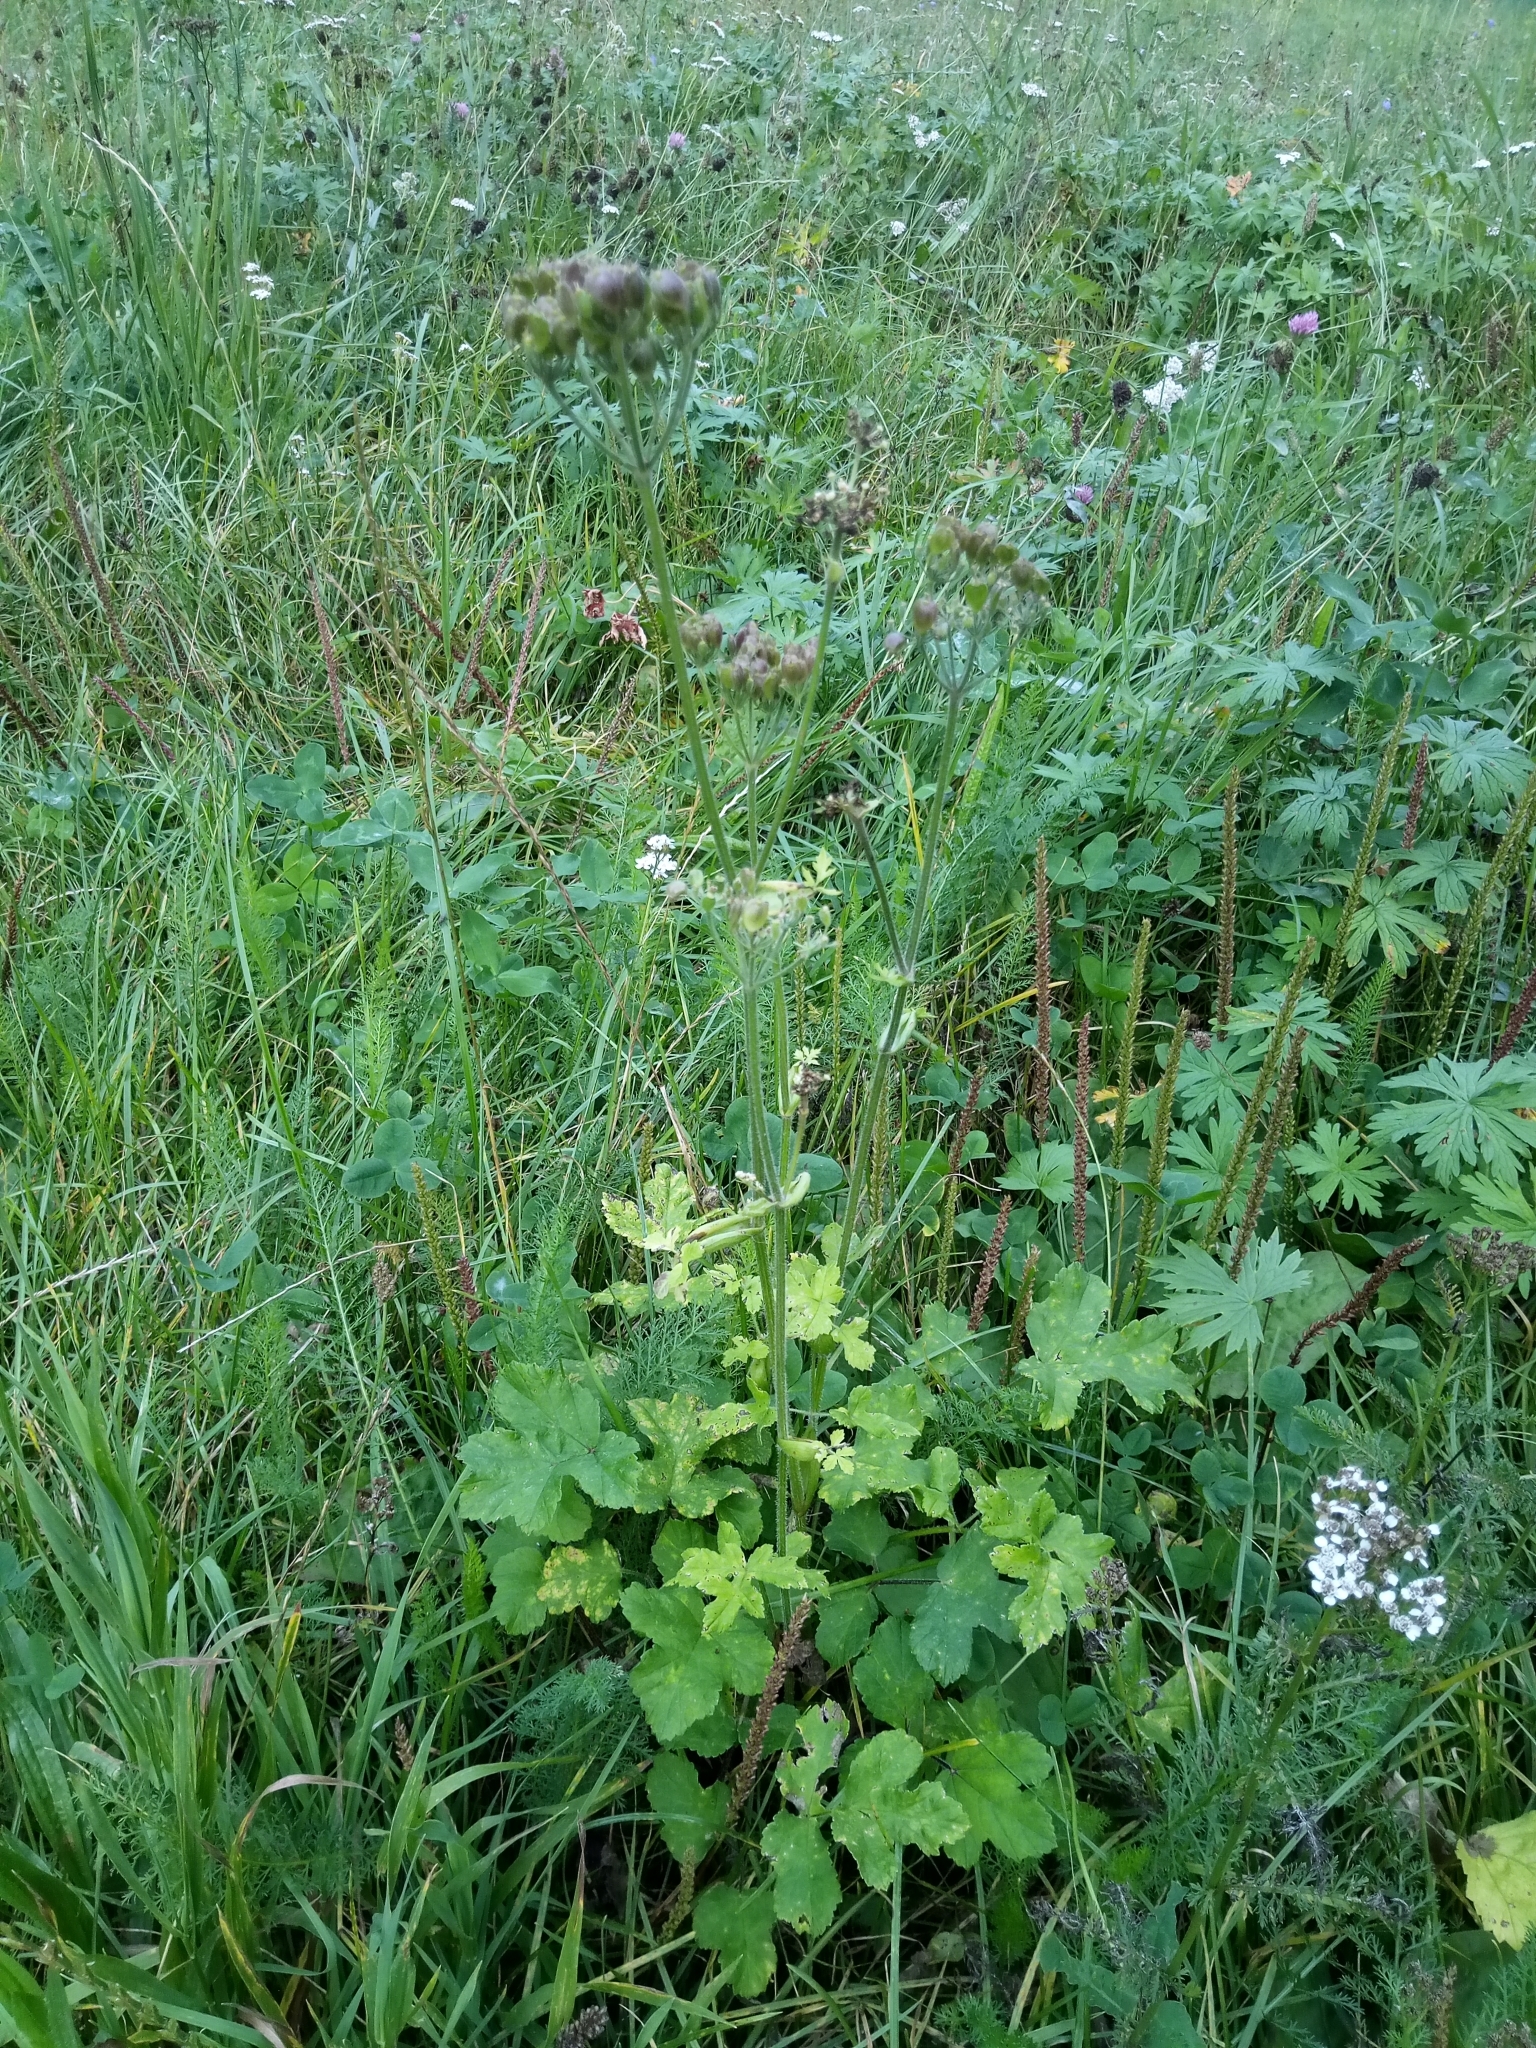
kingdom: Plantae
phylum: Tracheophyta
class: Magnoliopsida
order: Apiales
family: Apiaceae
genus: Heracleum
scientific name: Heracleum sphondylium
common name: Hogweed
